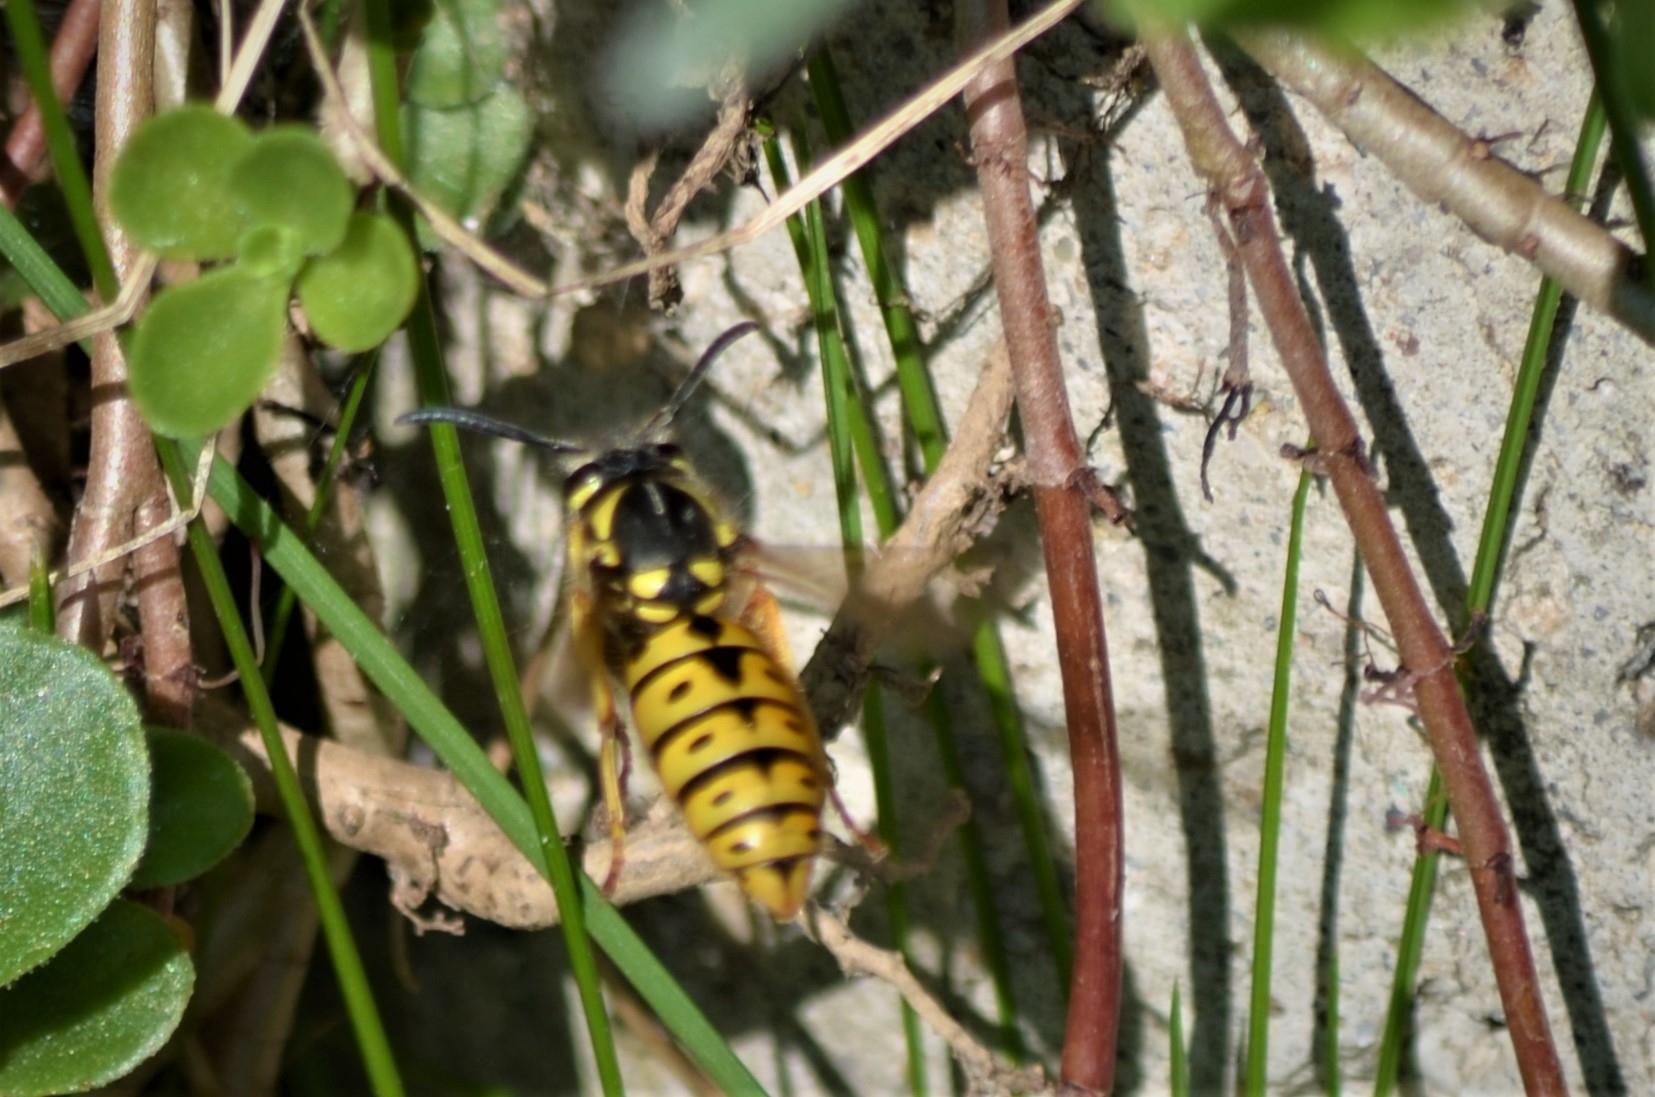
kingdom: Animalia
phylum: Arthropoda
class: Insecta
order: Hymenoptera
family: Vespidae
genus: Vespula
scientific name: Vespula germanica
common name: German wasp
